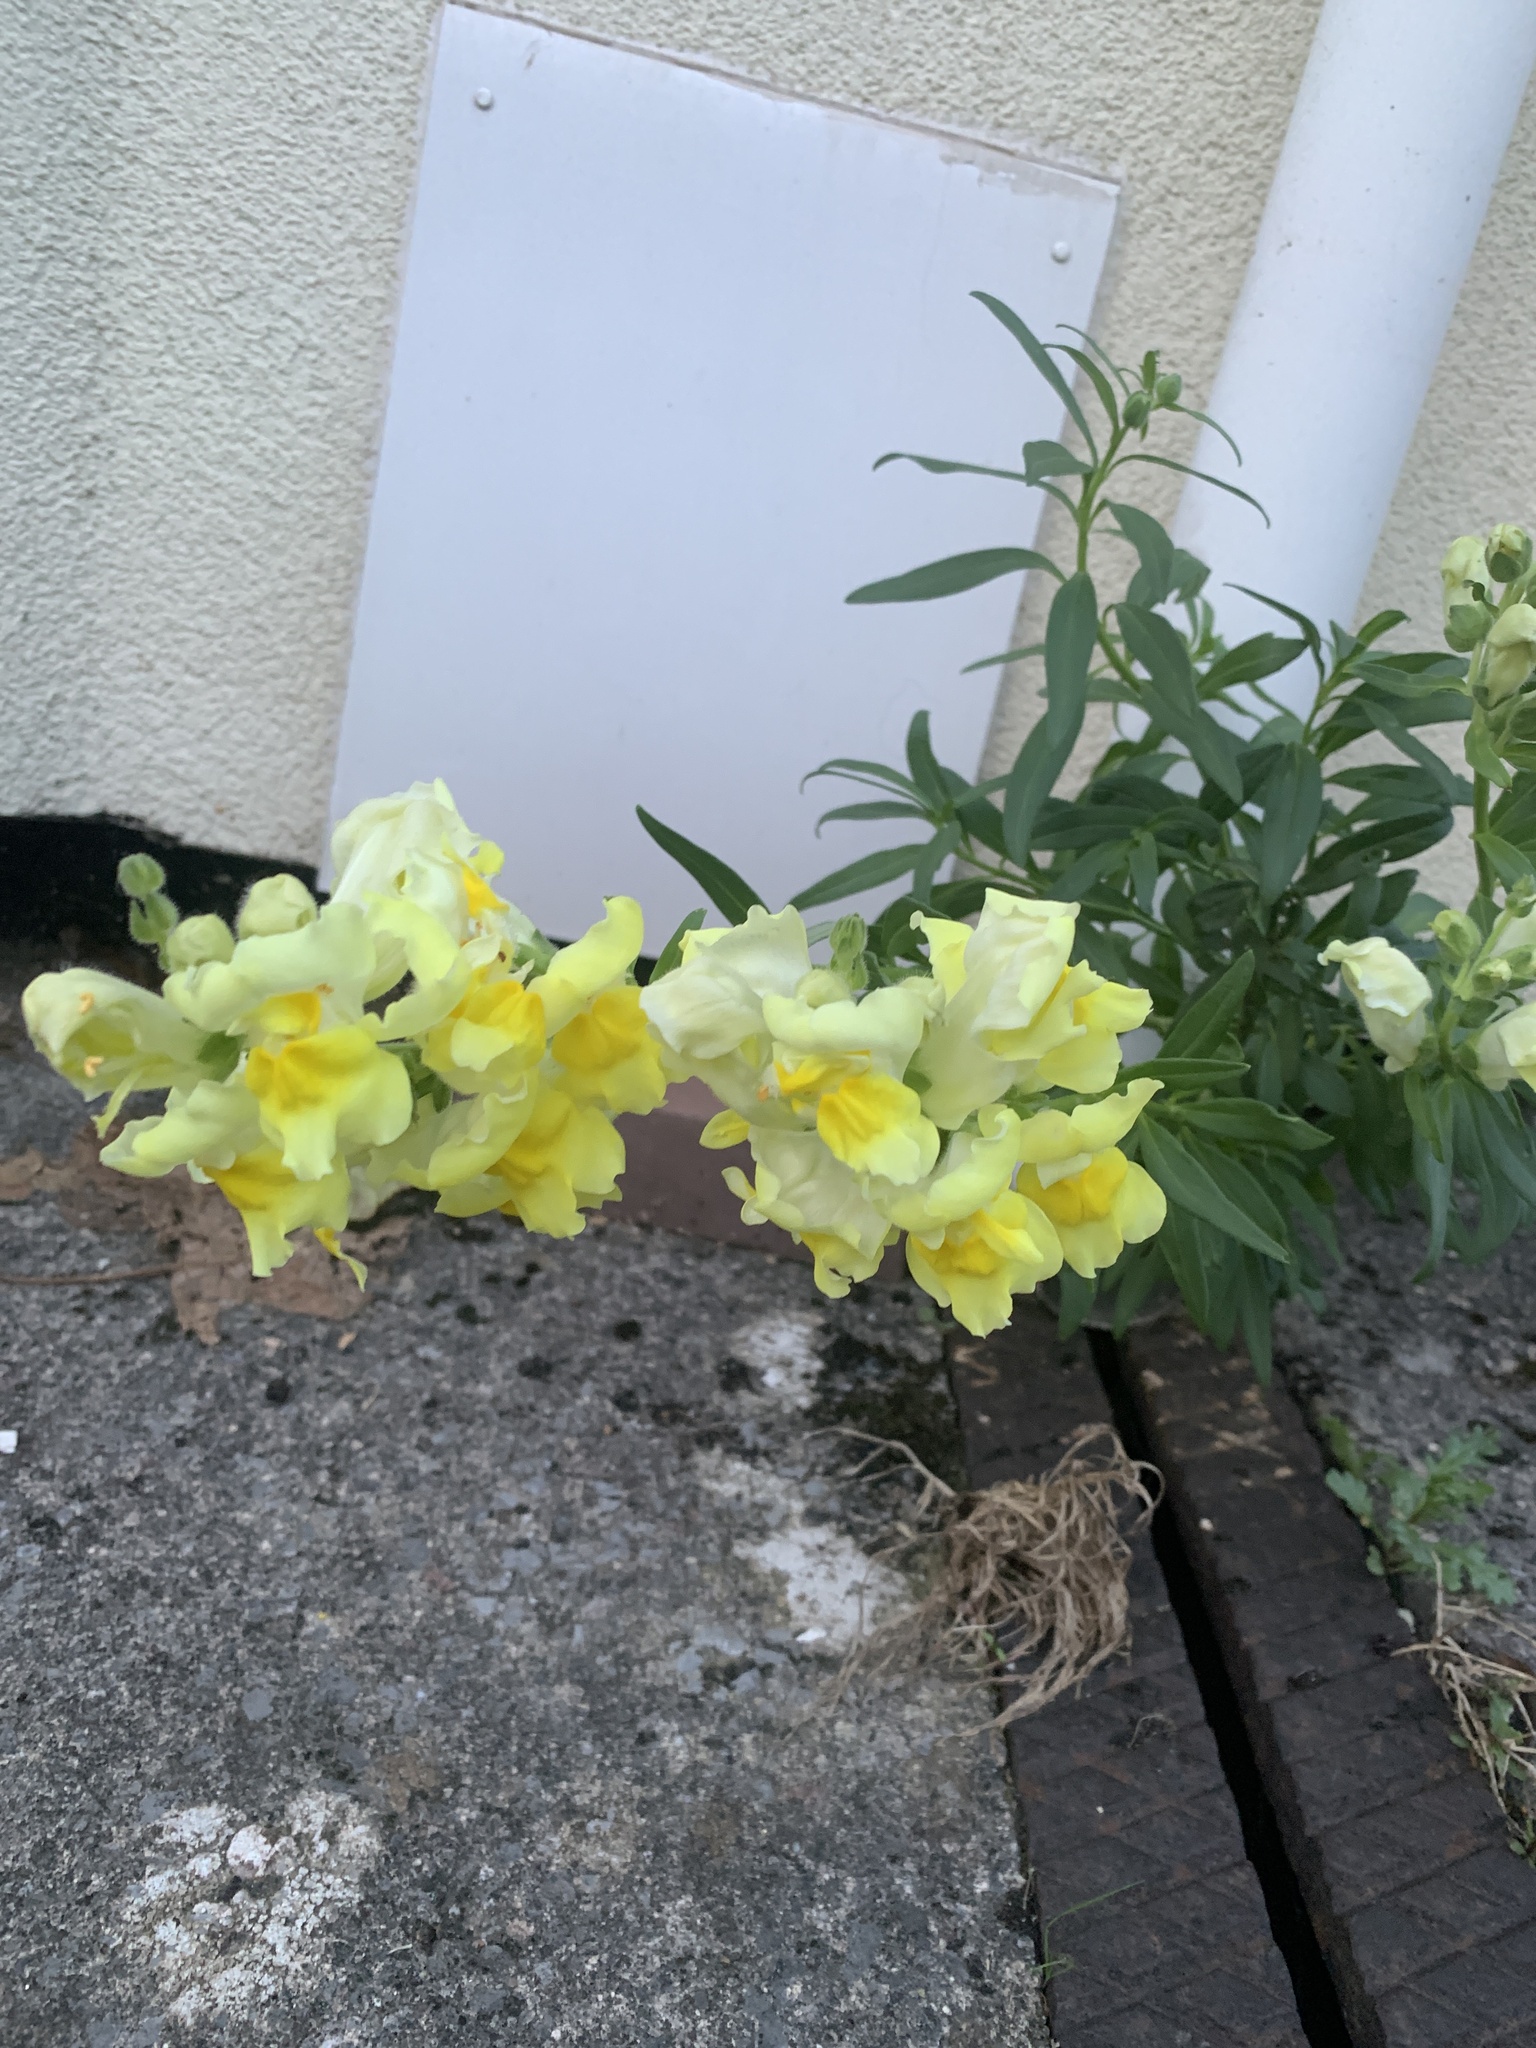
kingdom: Plantae
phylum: Tracheophyta
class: Magnoliopsida
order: Lamiales
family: Plantaginaceae
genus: Antirrhinum
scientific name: Antirrhinum majus
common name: Snapdragon
